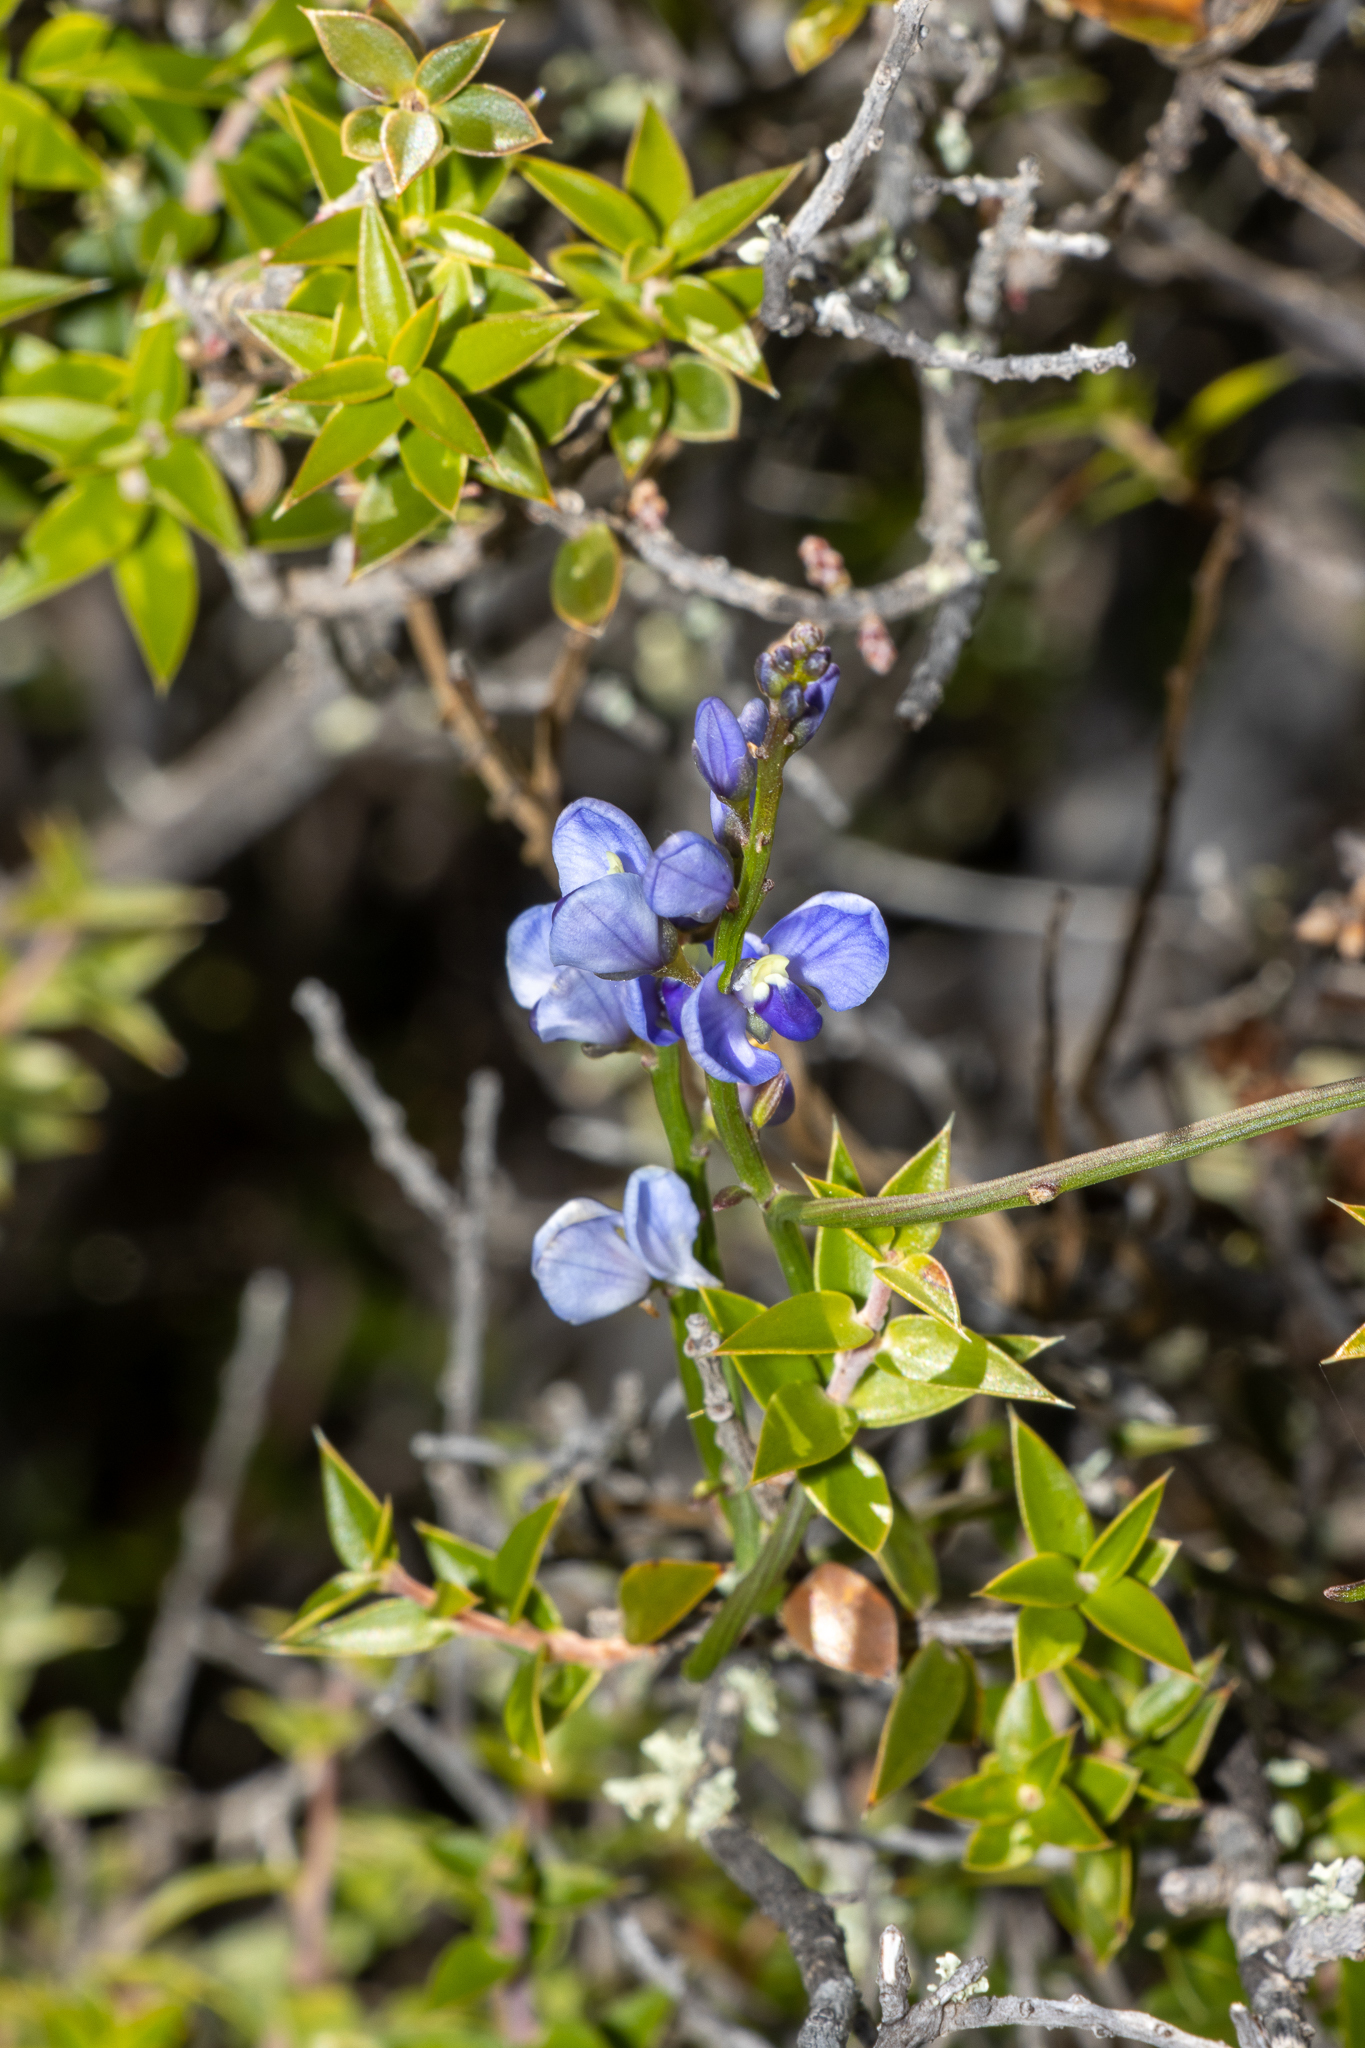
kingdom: Plantae
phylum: Tracheophyta
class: Magnoliopsida
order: Fabales
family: Polygalaceae
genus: Comesperma
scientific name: Comesperma volubile
